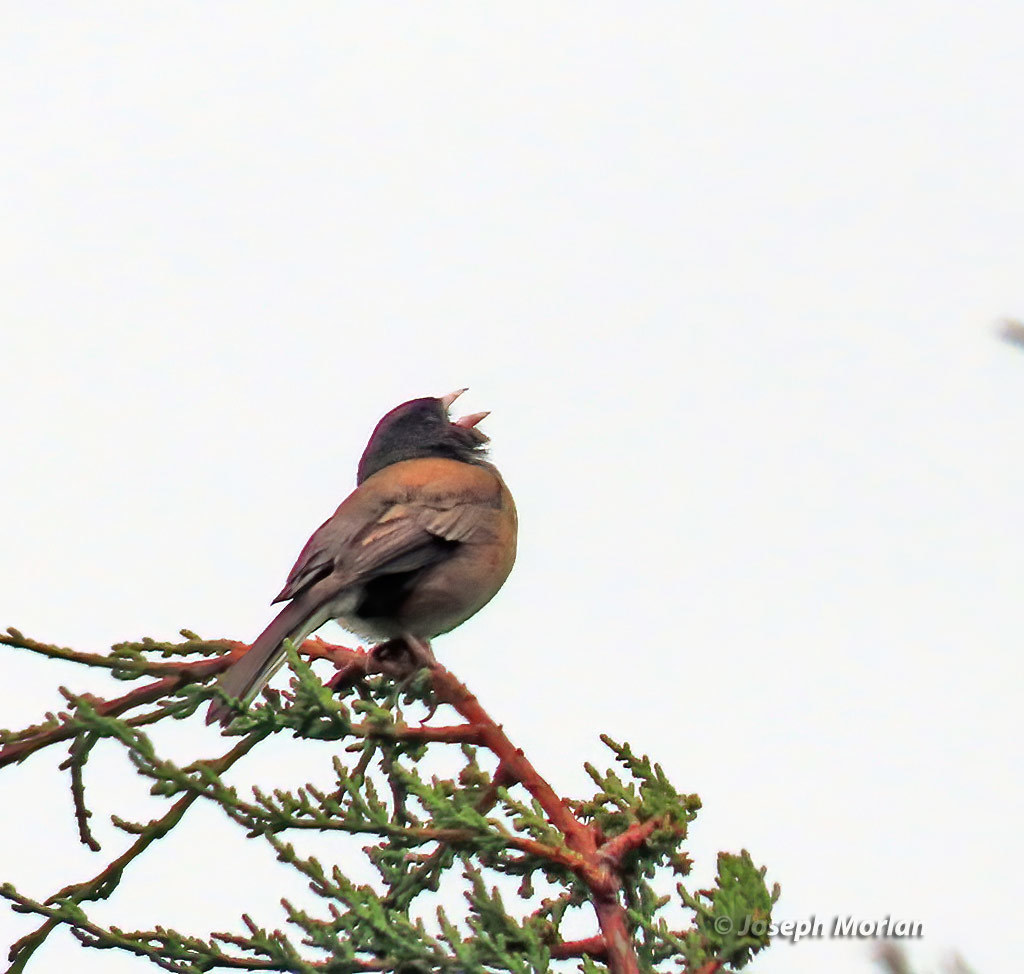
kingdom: Animalia
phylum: Chordata
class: Aves
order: Passeriformes
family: Passerellidae
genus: Junco
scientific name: Junco hyemalis
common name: Dark-eyed junco
